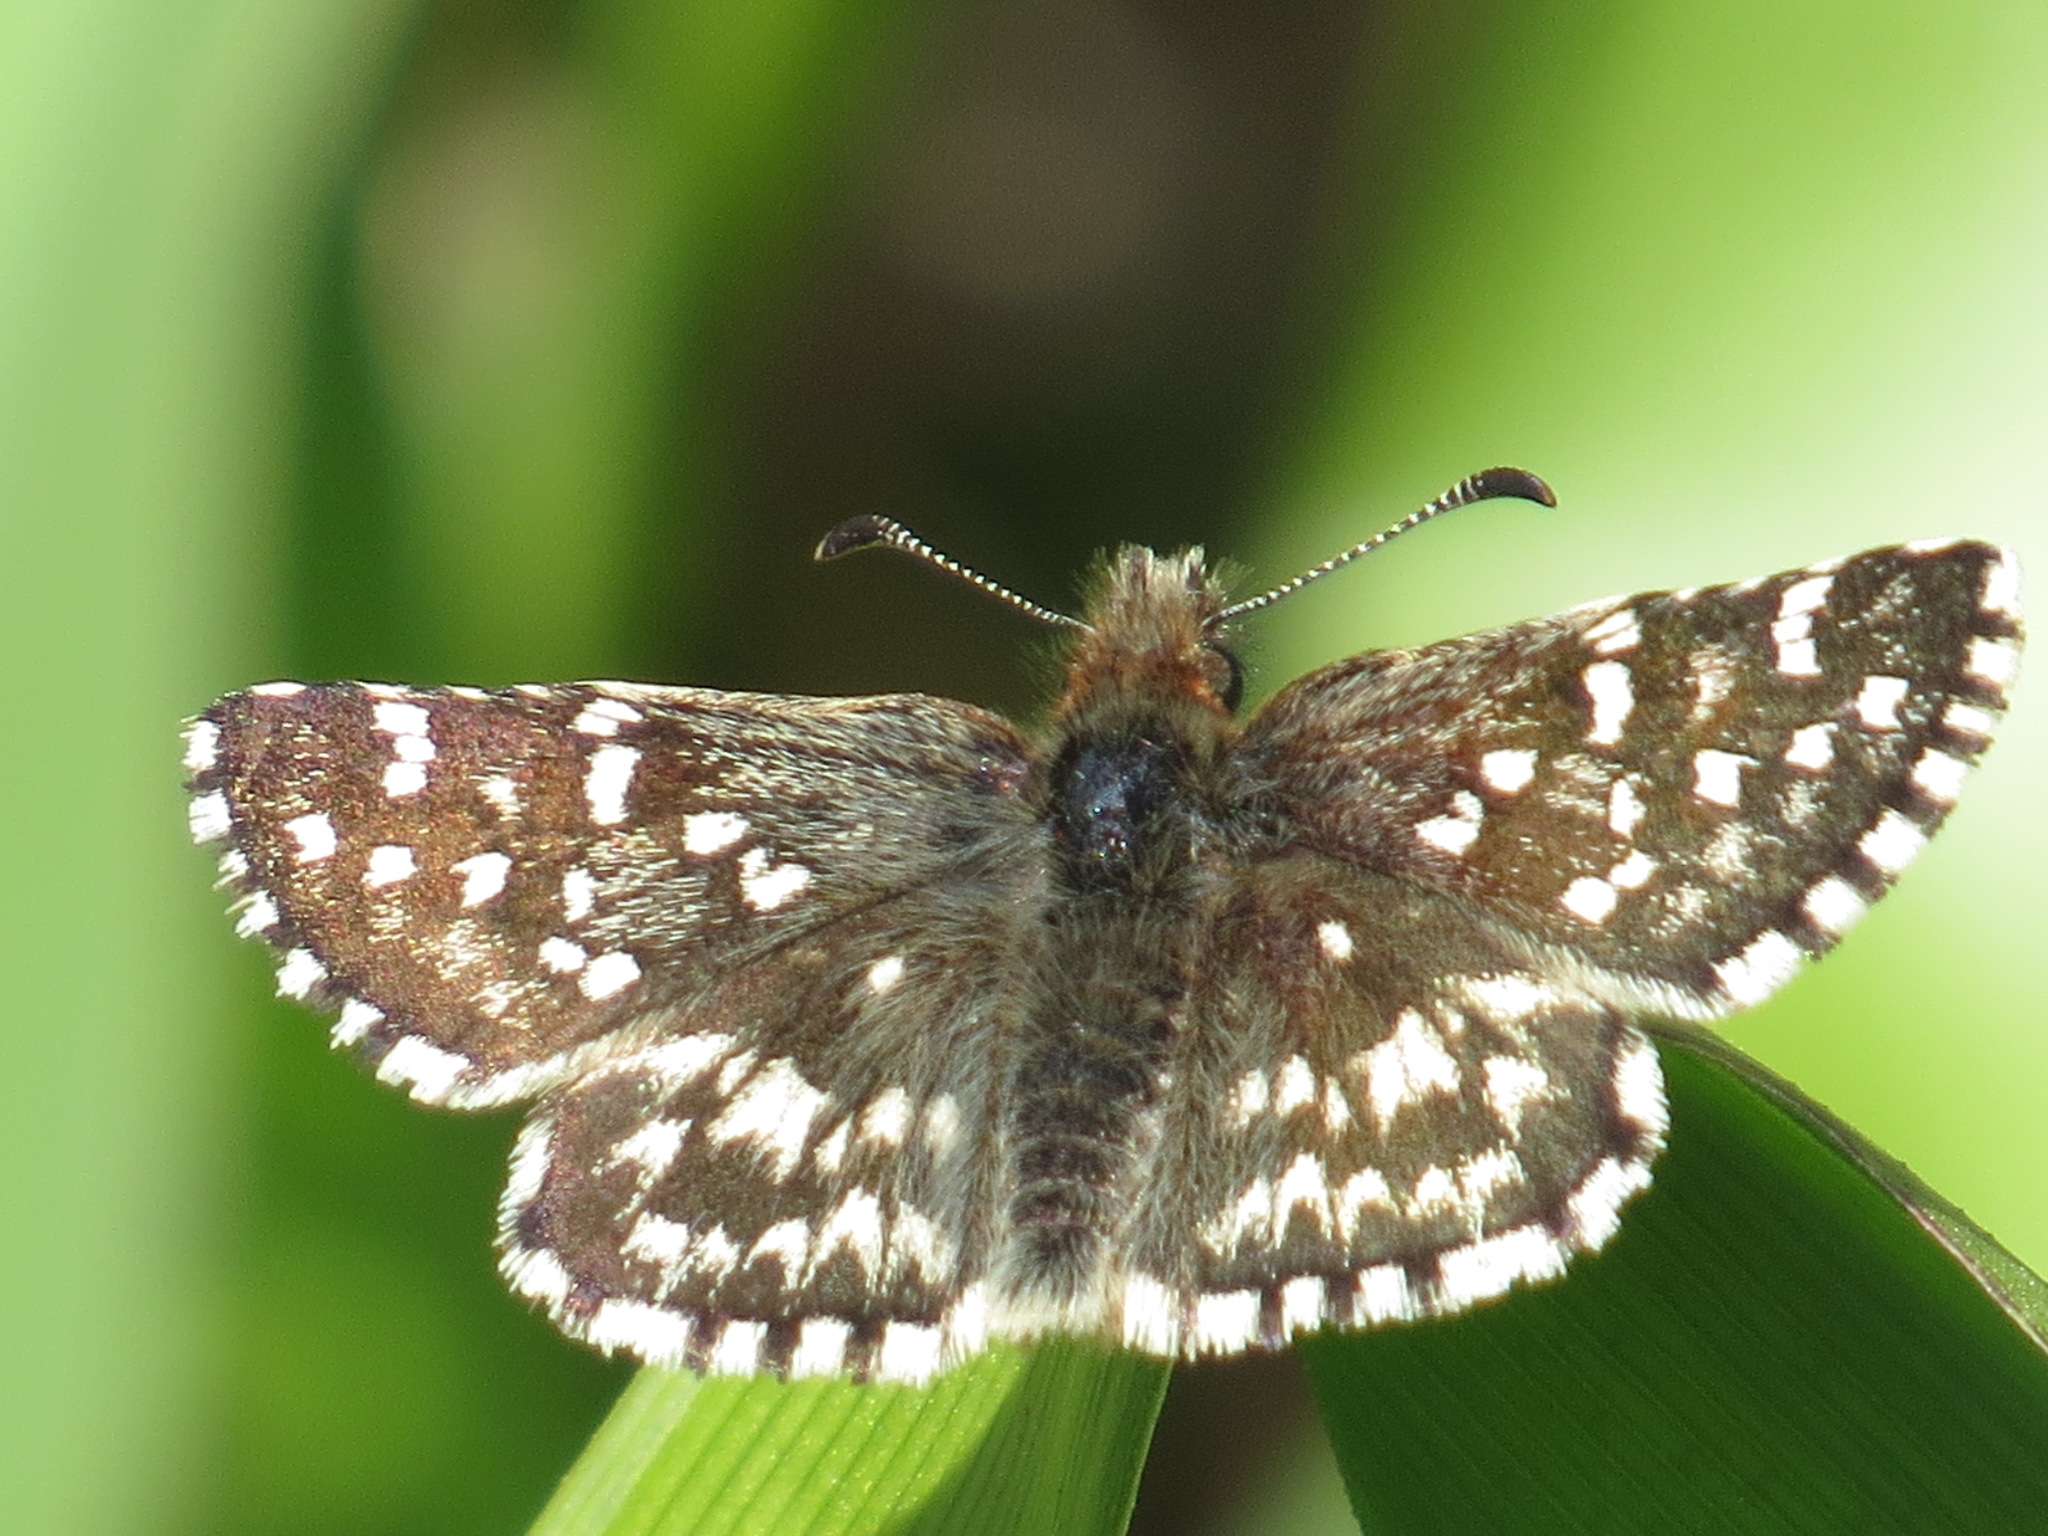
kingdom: Animalia
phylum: Arthropoda
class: Insecta
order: Lepidoptera
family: Hesperiidae
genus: Pyrgus
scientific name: Pyrgus ruralis
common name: Two-banded checkered-skipper
